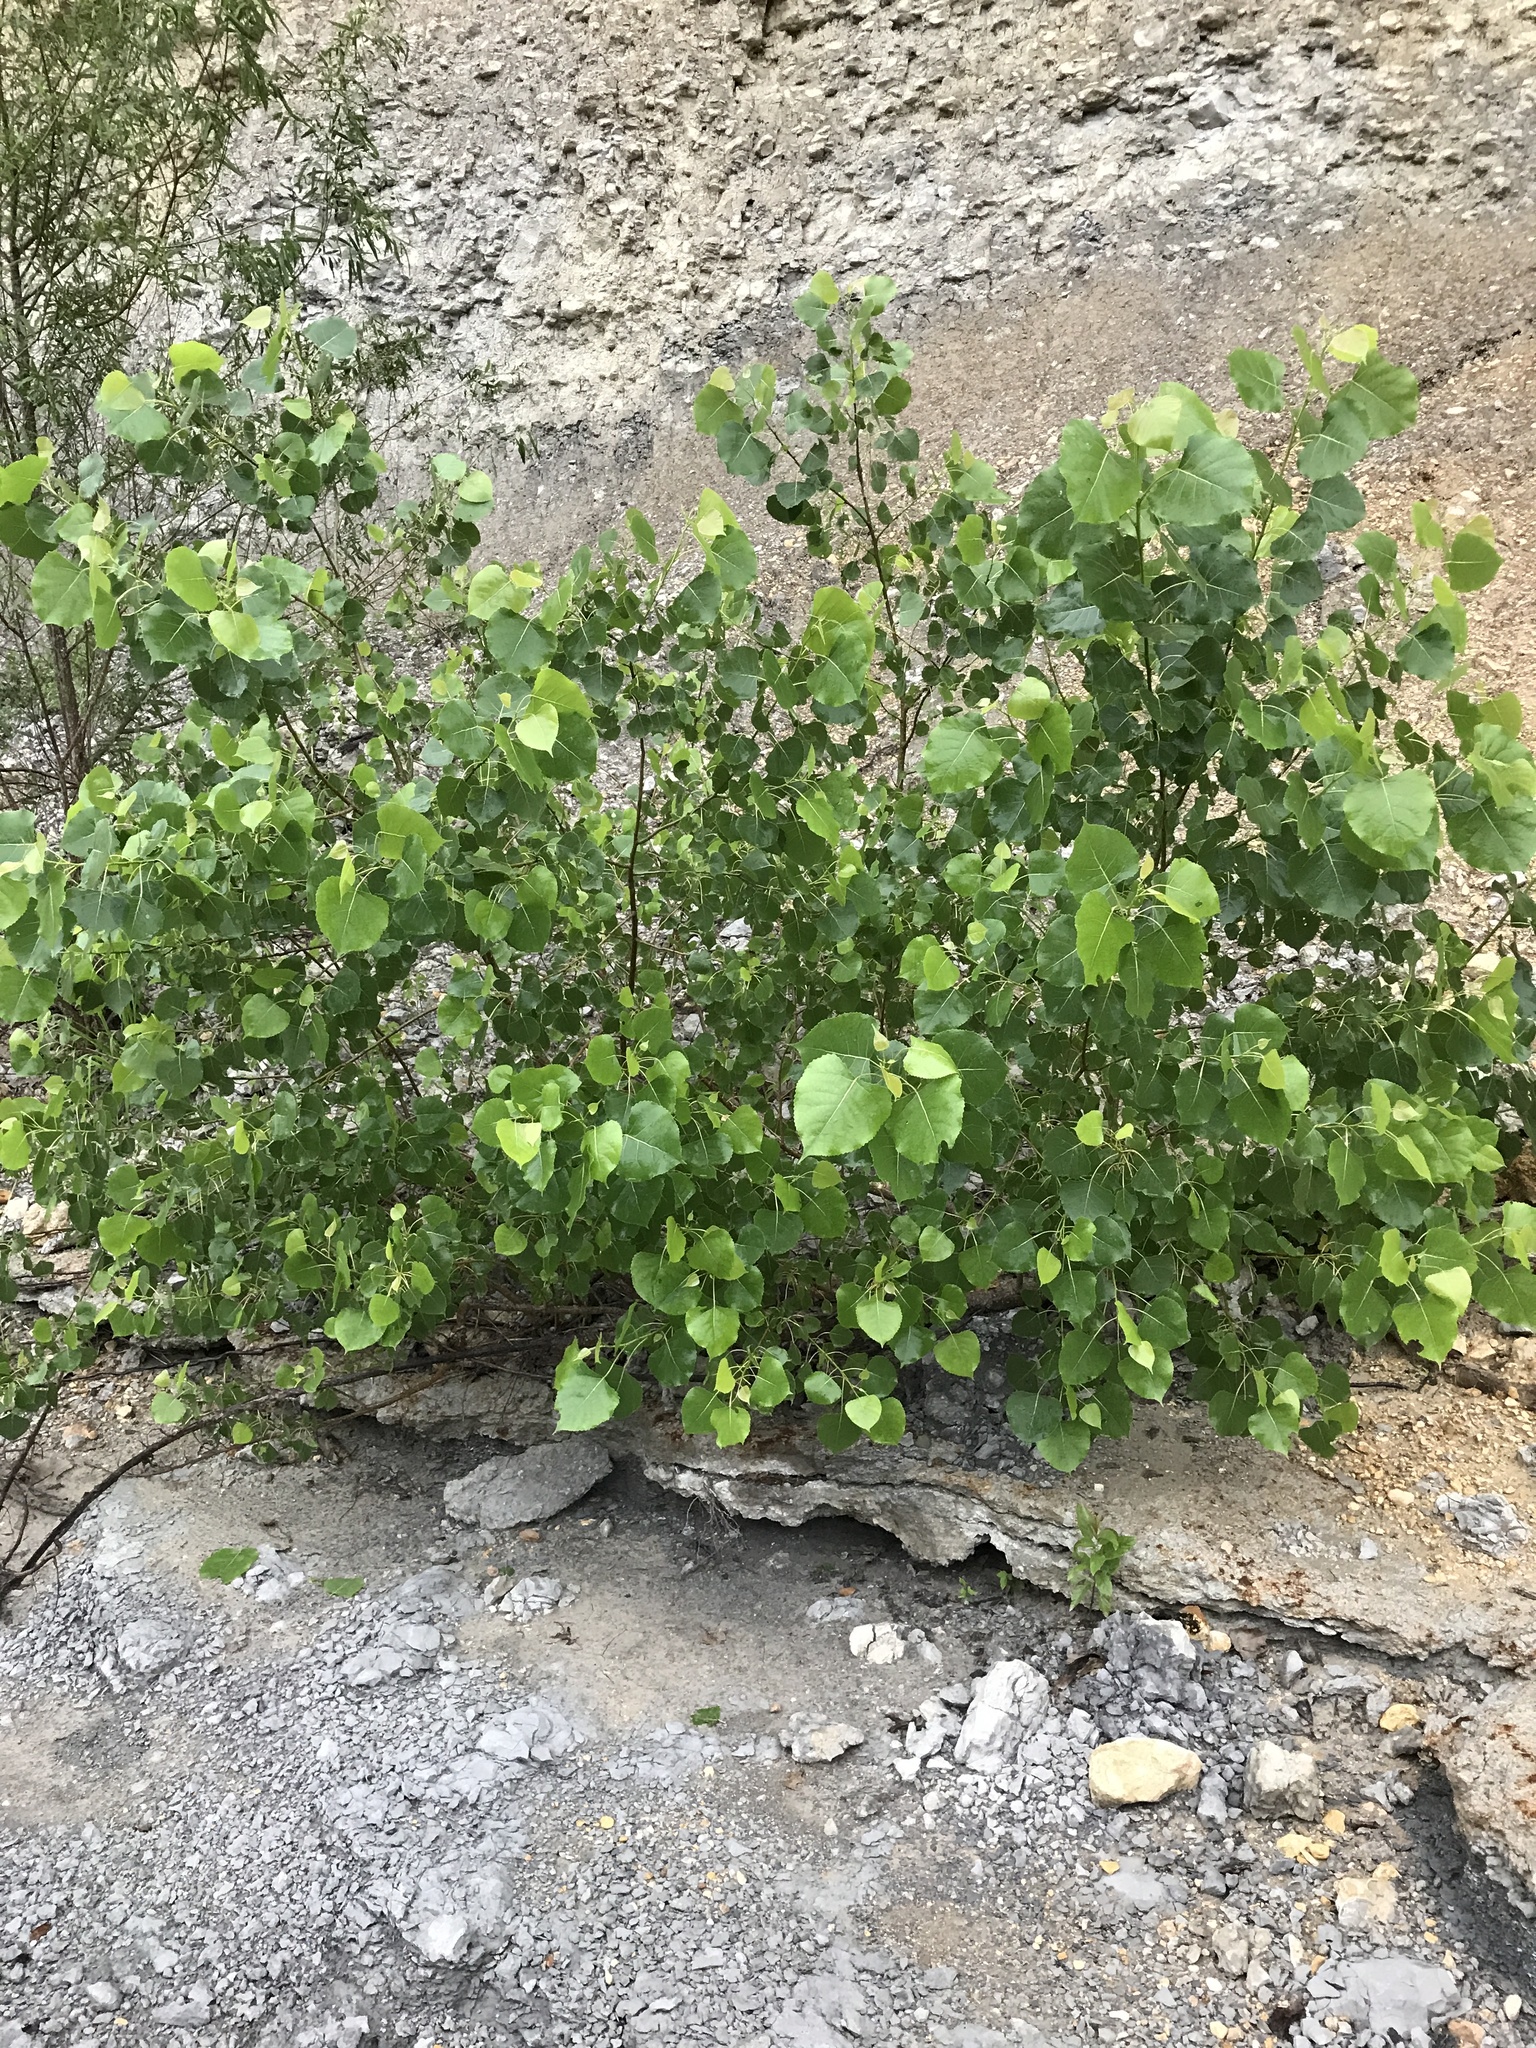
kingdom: Plantae
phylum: Tracheophyta
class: Magnoliopsida
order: Malpighiales
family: Salicaceae
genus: Populus
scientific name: Populus deltoides
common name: Eastern cottonwood
